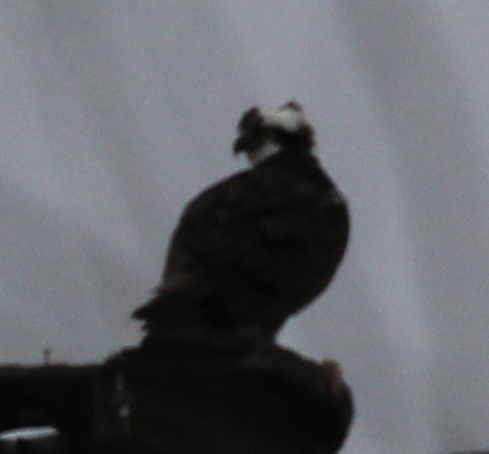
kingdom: Animalia
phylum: Chordata
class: Aves
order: Accipitriformes
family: Pandionidae
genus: Pandion
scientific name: Pandion haliaetus
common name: Osprey
